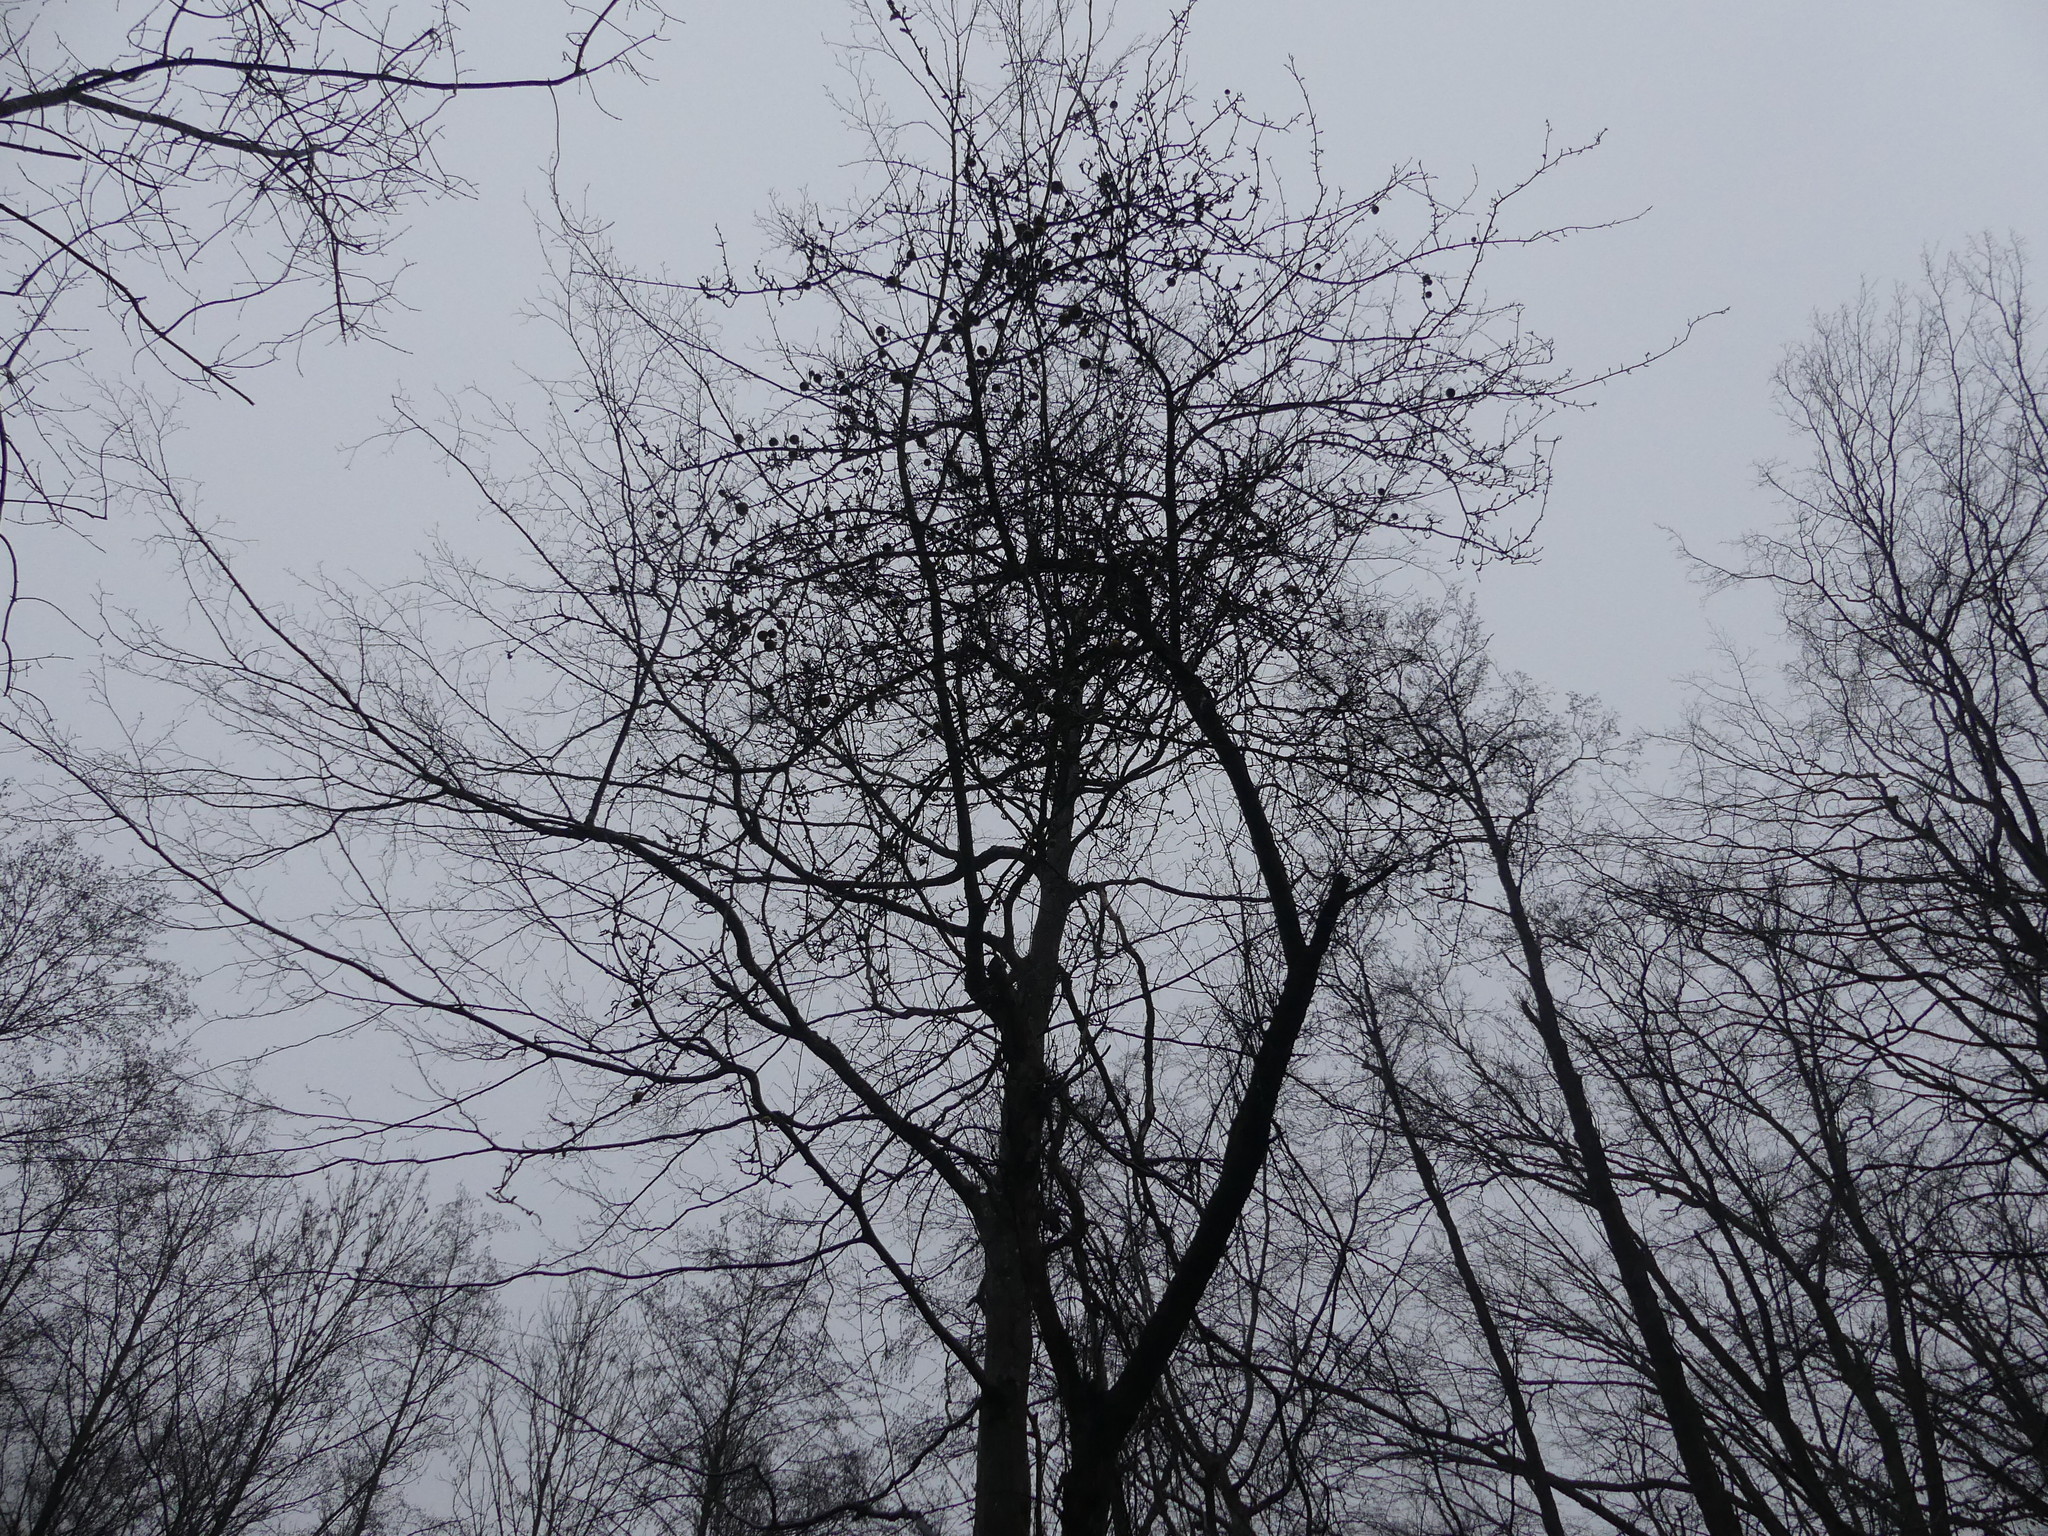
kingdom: Plantae
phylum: Tracheophyta
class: Magnoliopsida
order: Rosales
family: Rosaceae
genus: Malus
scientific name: Malus sylvestris
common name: Crab apple
